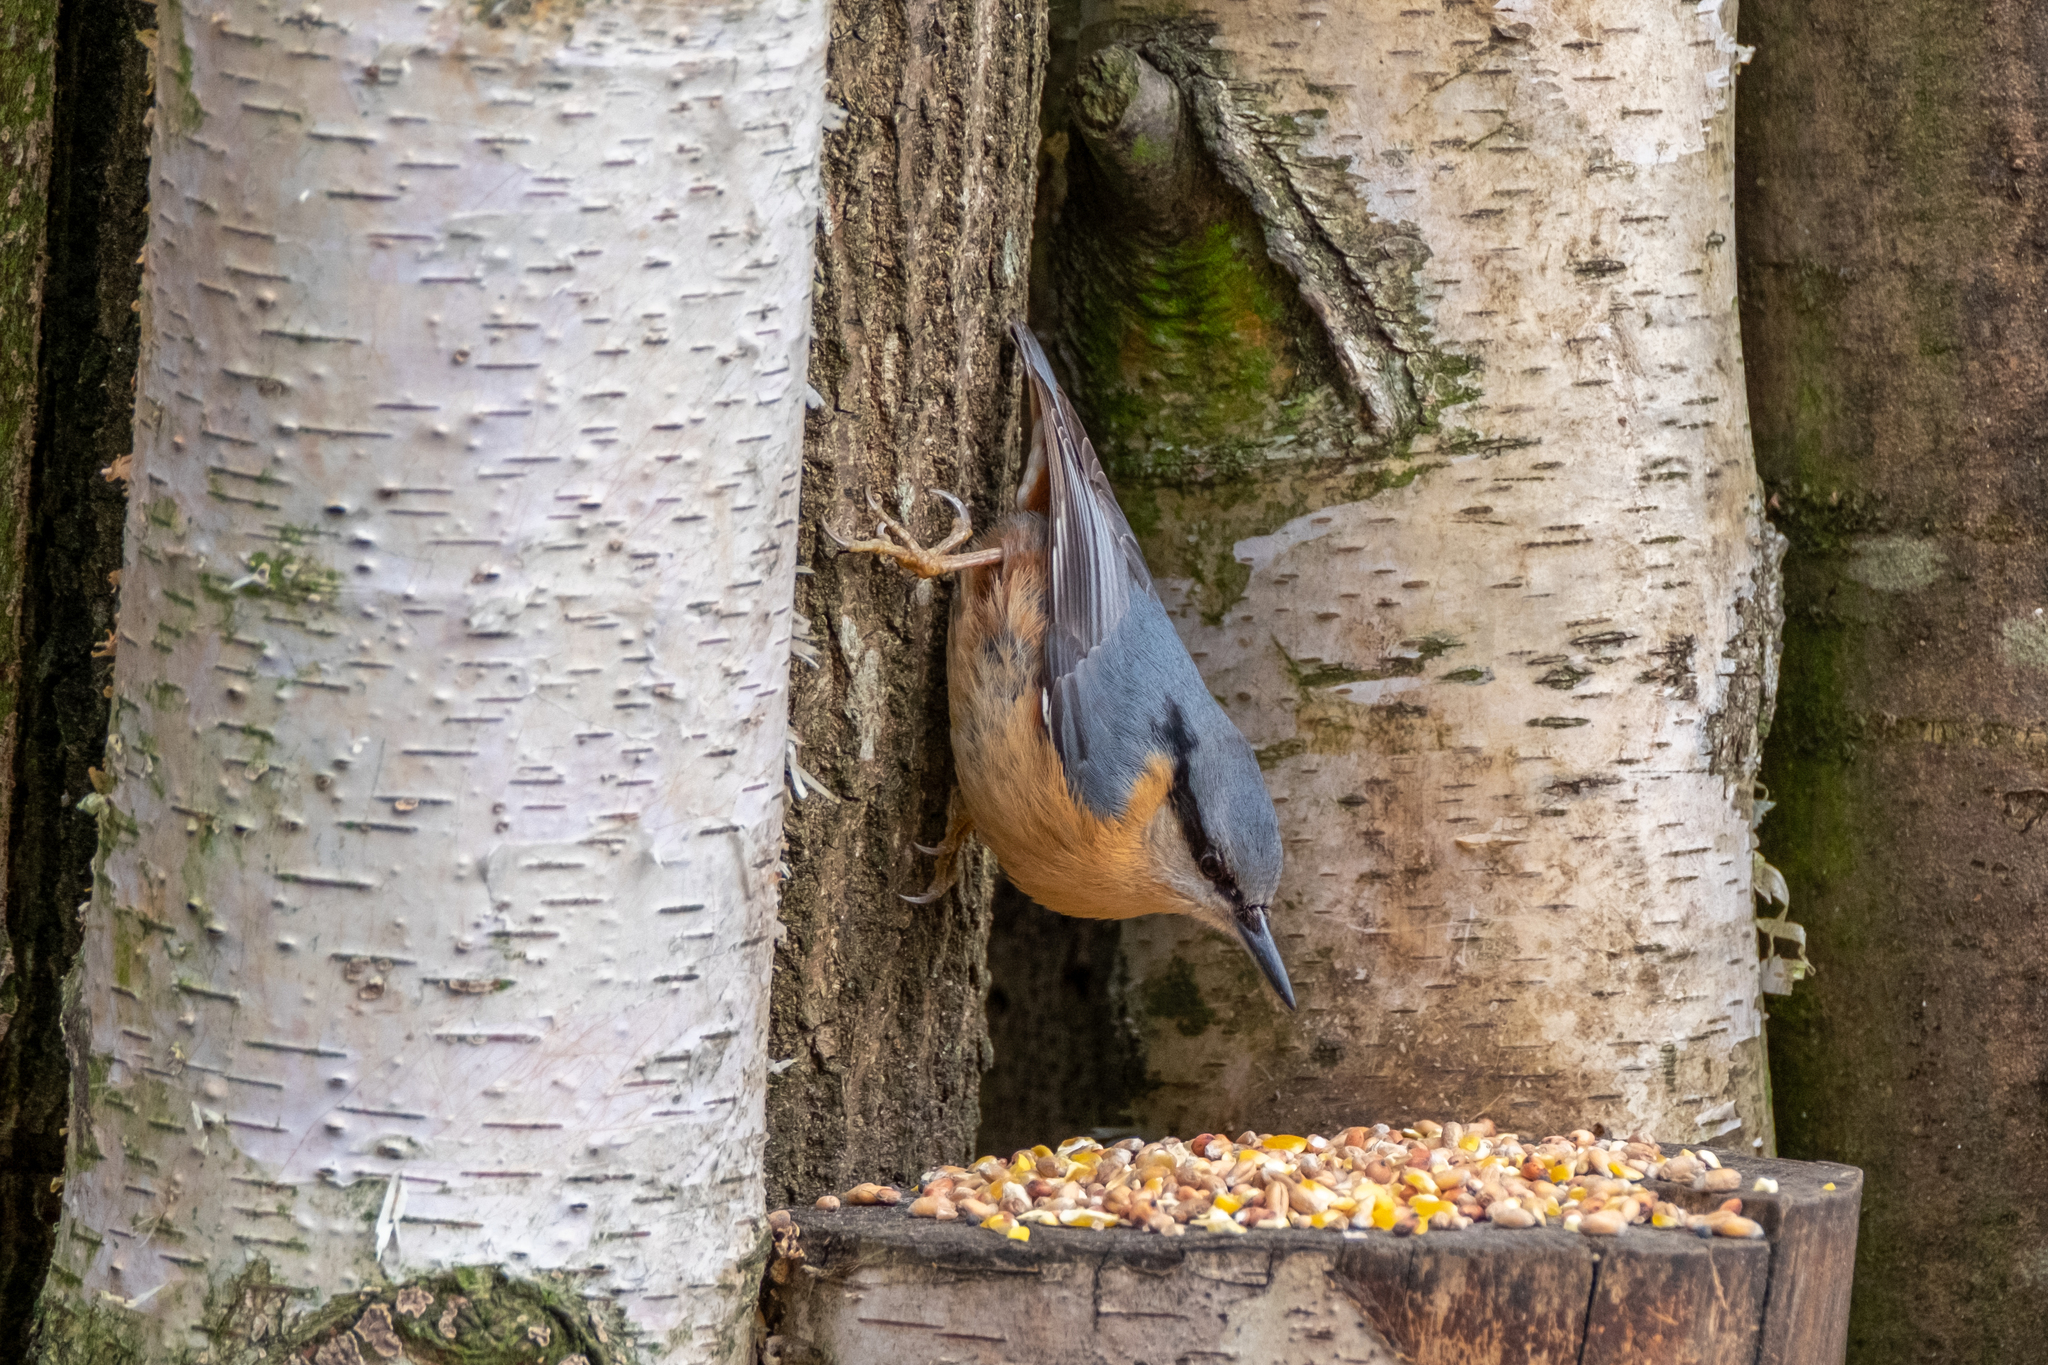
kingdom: Animalia
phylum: Chordata
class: Aves
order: Passeriformes
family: Sittidae
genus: Sitta
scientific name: Sitta europaea
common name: Eurasian nuthatch
